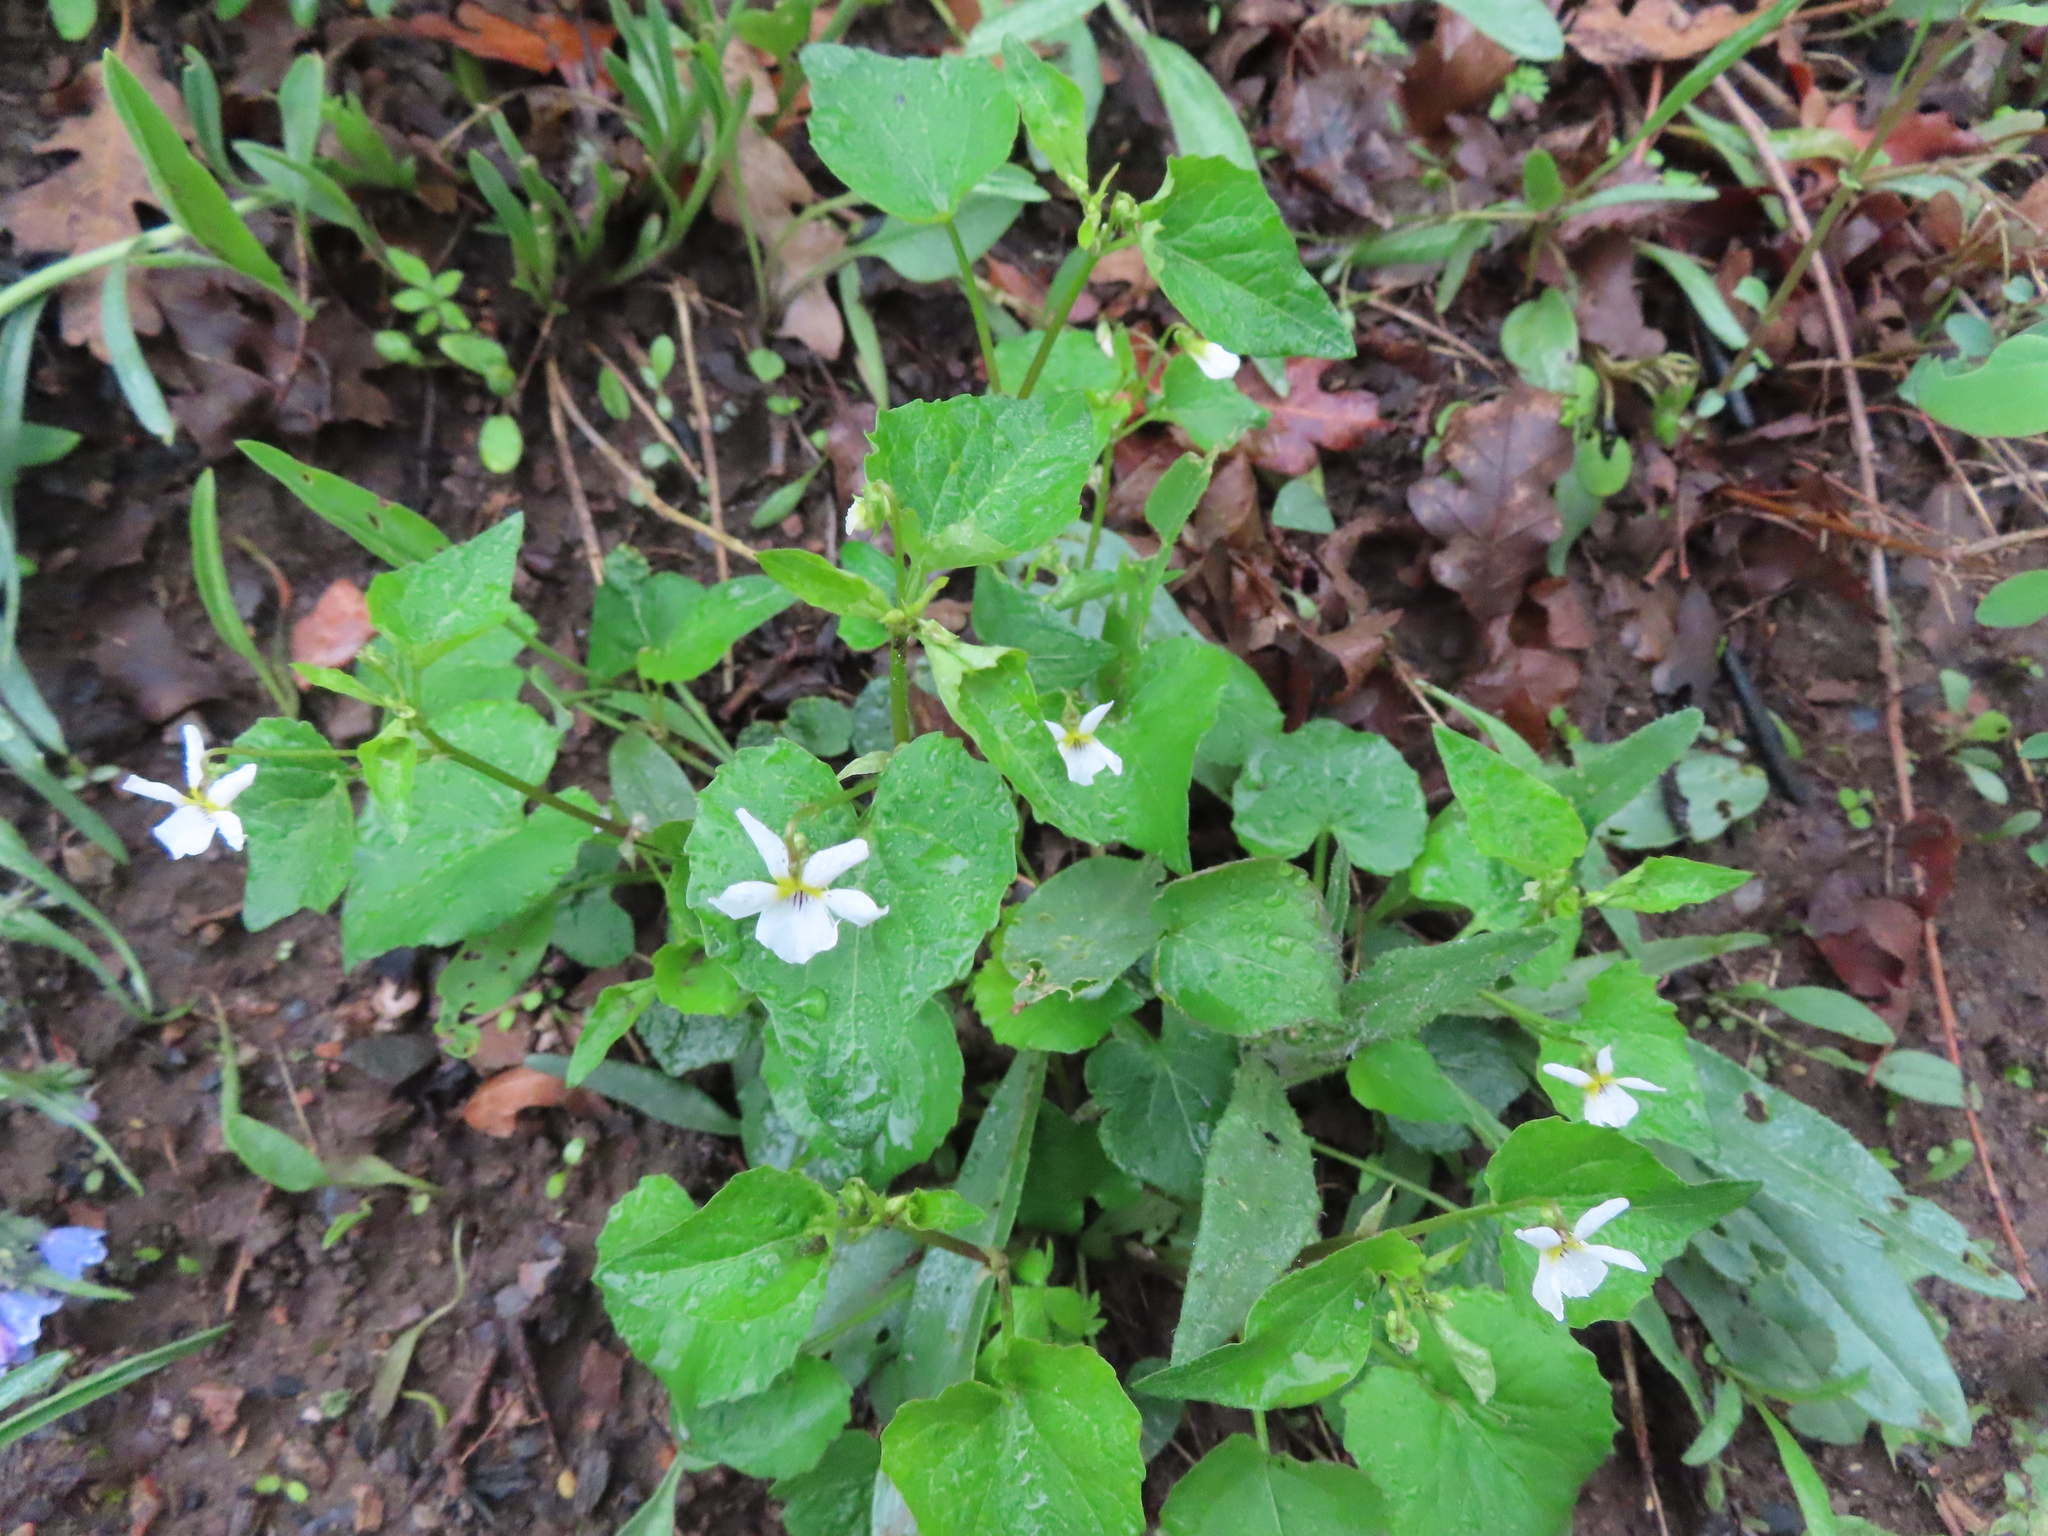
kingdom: Plantae
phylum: Tracheophyta
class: Magnoliopsida
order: Malpighiales
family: Violaceae
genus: Viola
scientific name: Viola canadensis
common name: Canada violet
